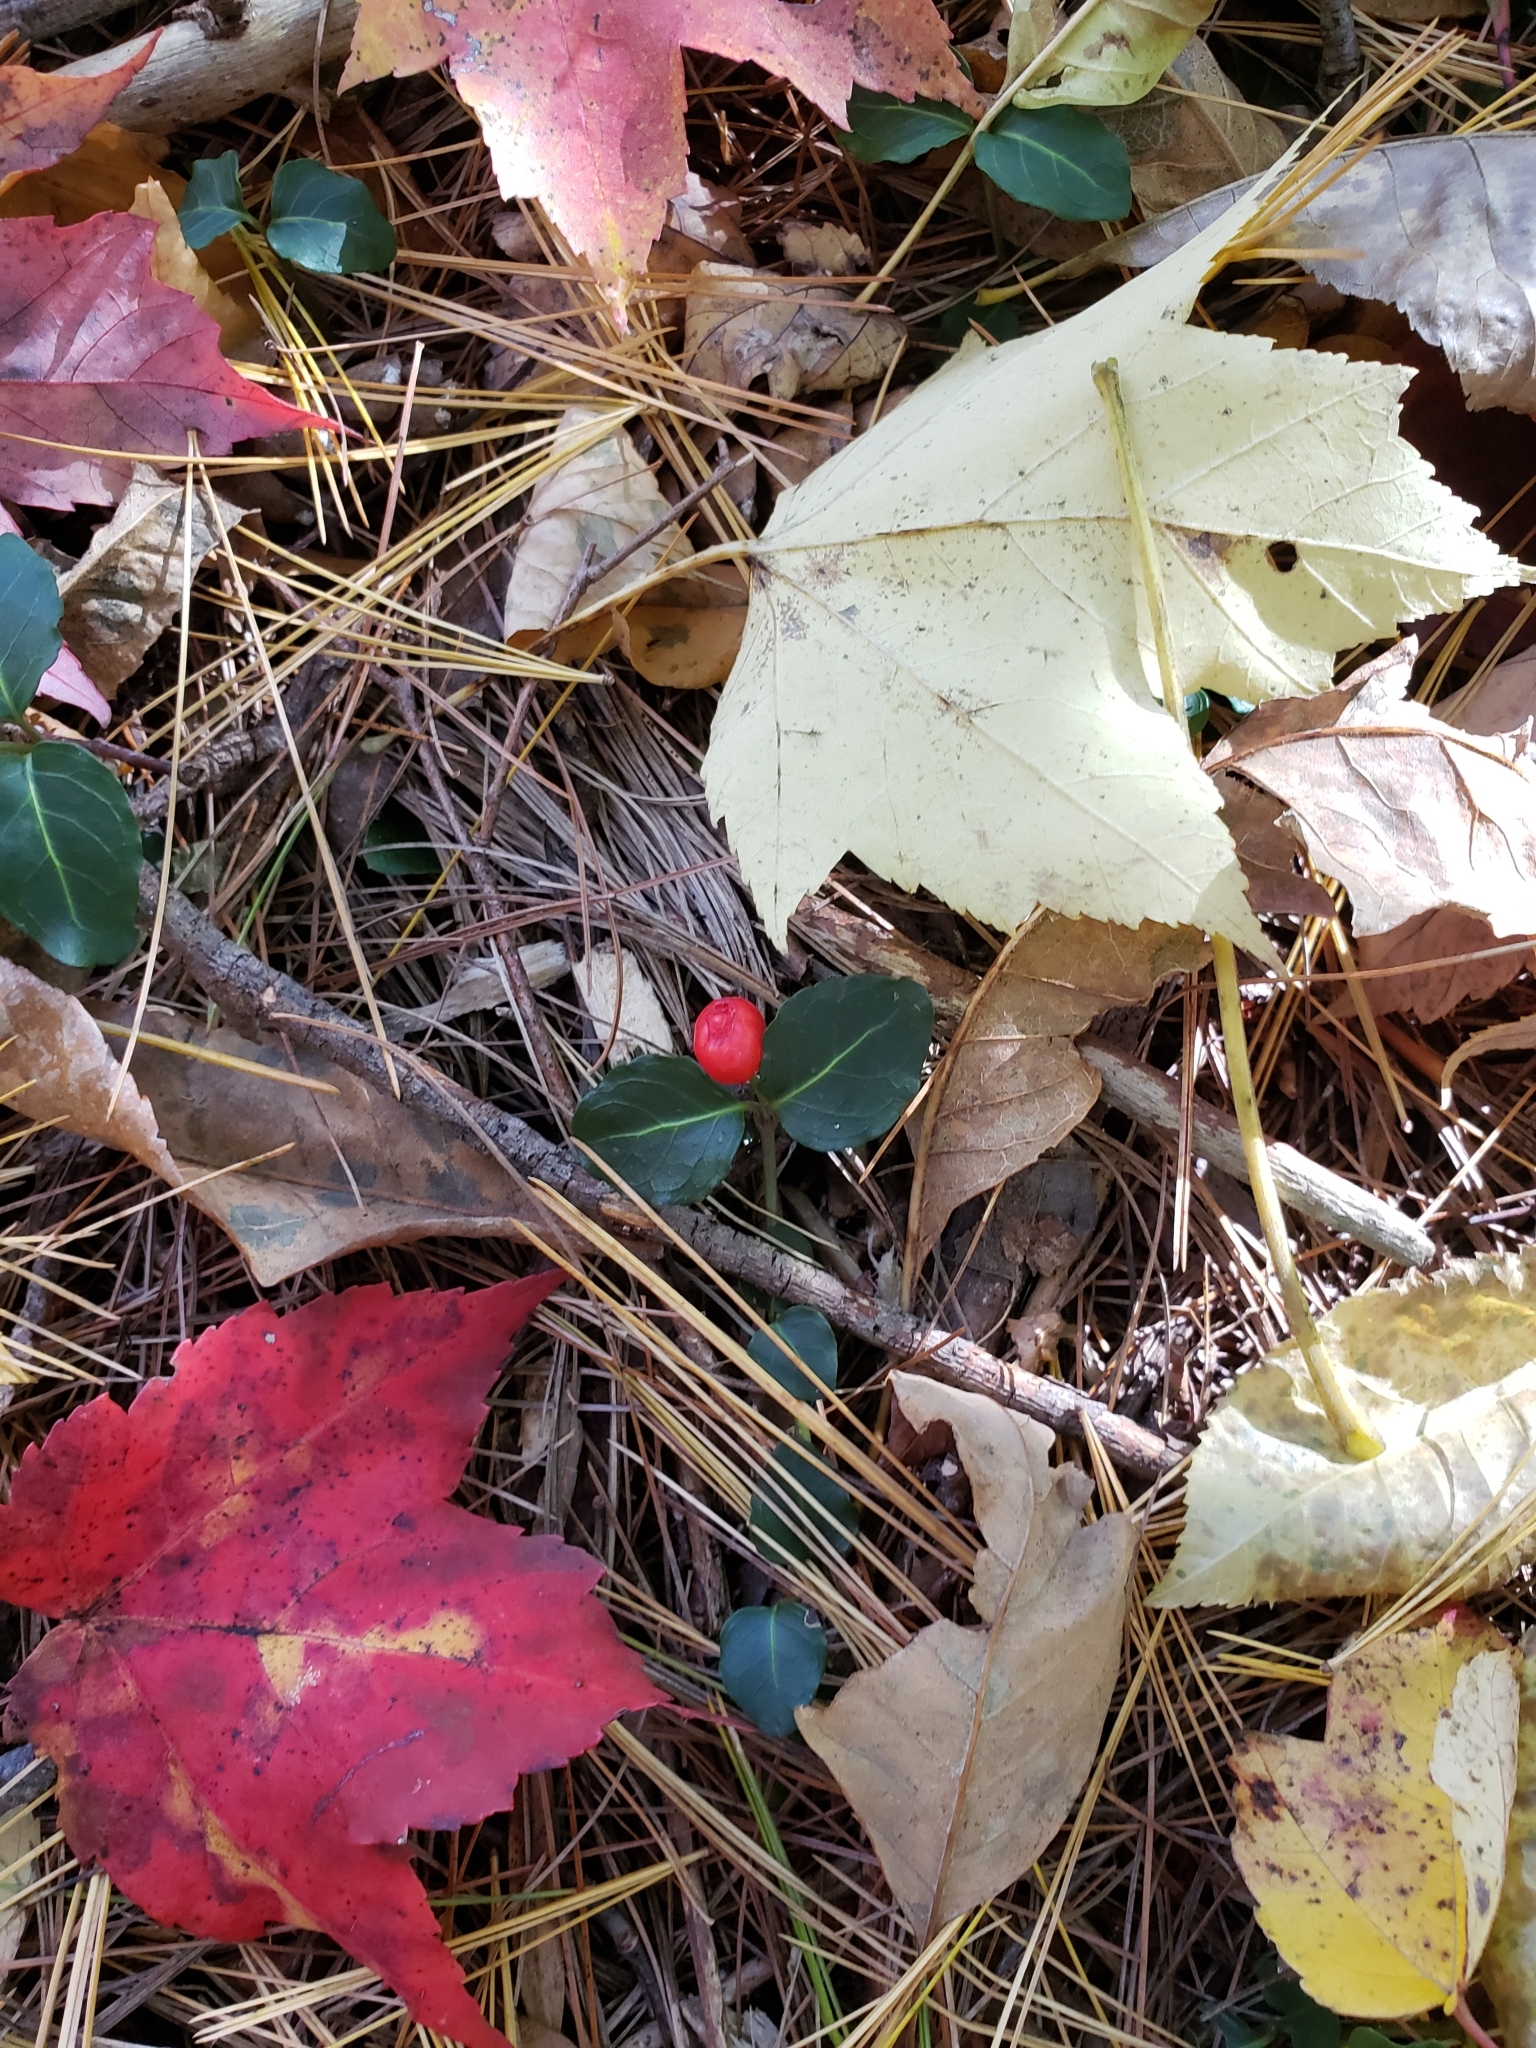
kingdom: Plantae
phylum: Tracheophyta
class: Magnoliopsida
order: Gentianales
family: Rubiaceae
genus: Mitchella
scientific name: Mitchella repens
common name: Partridge-berry
